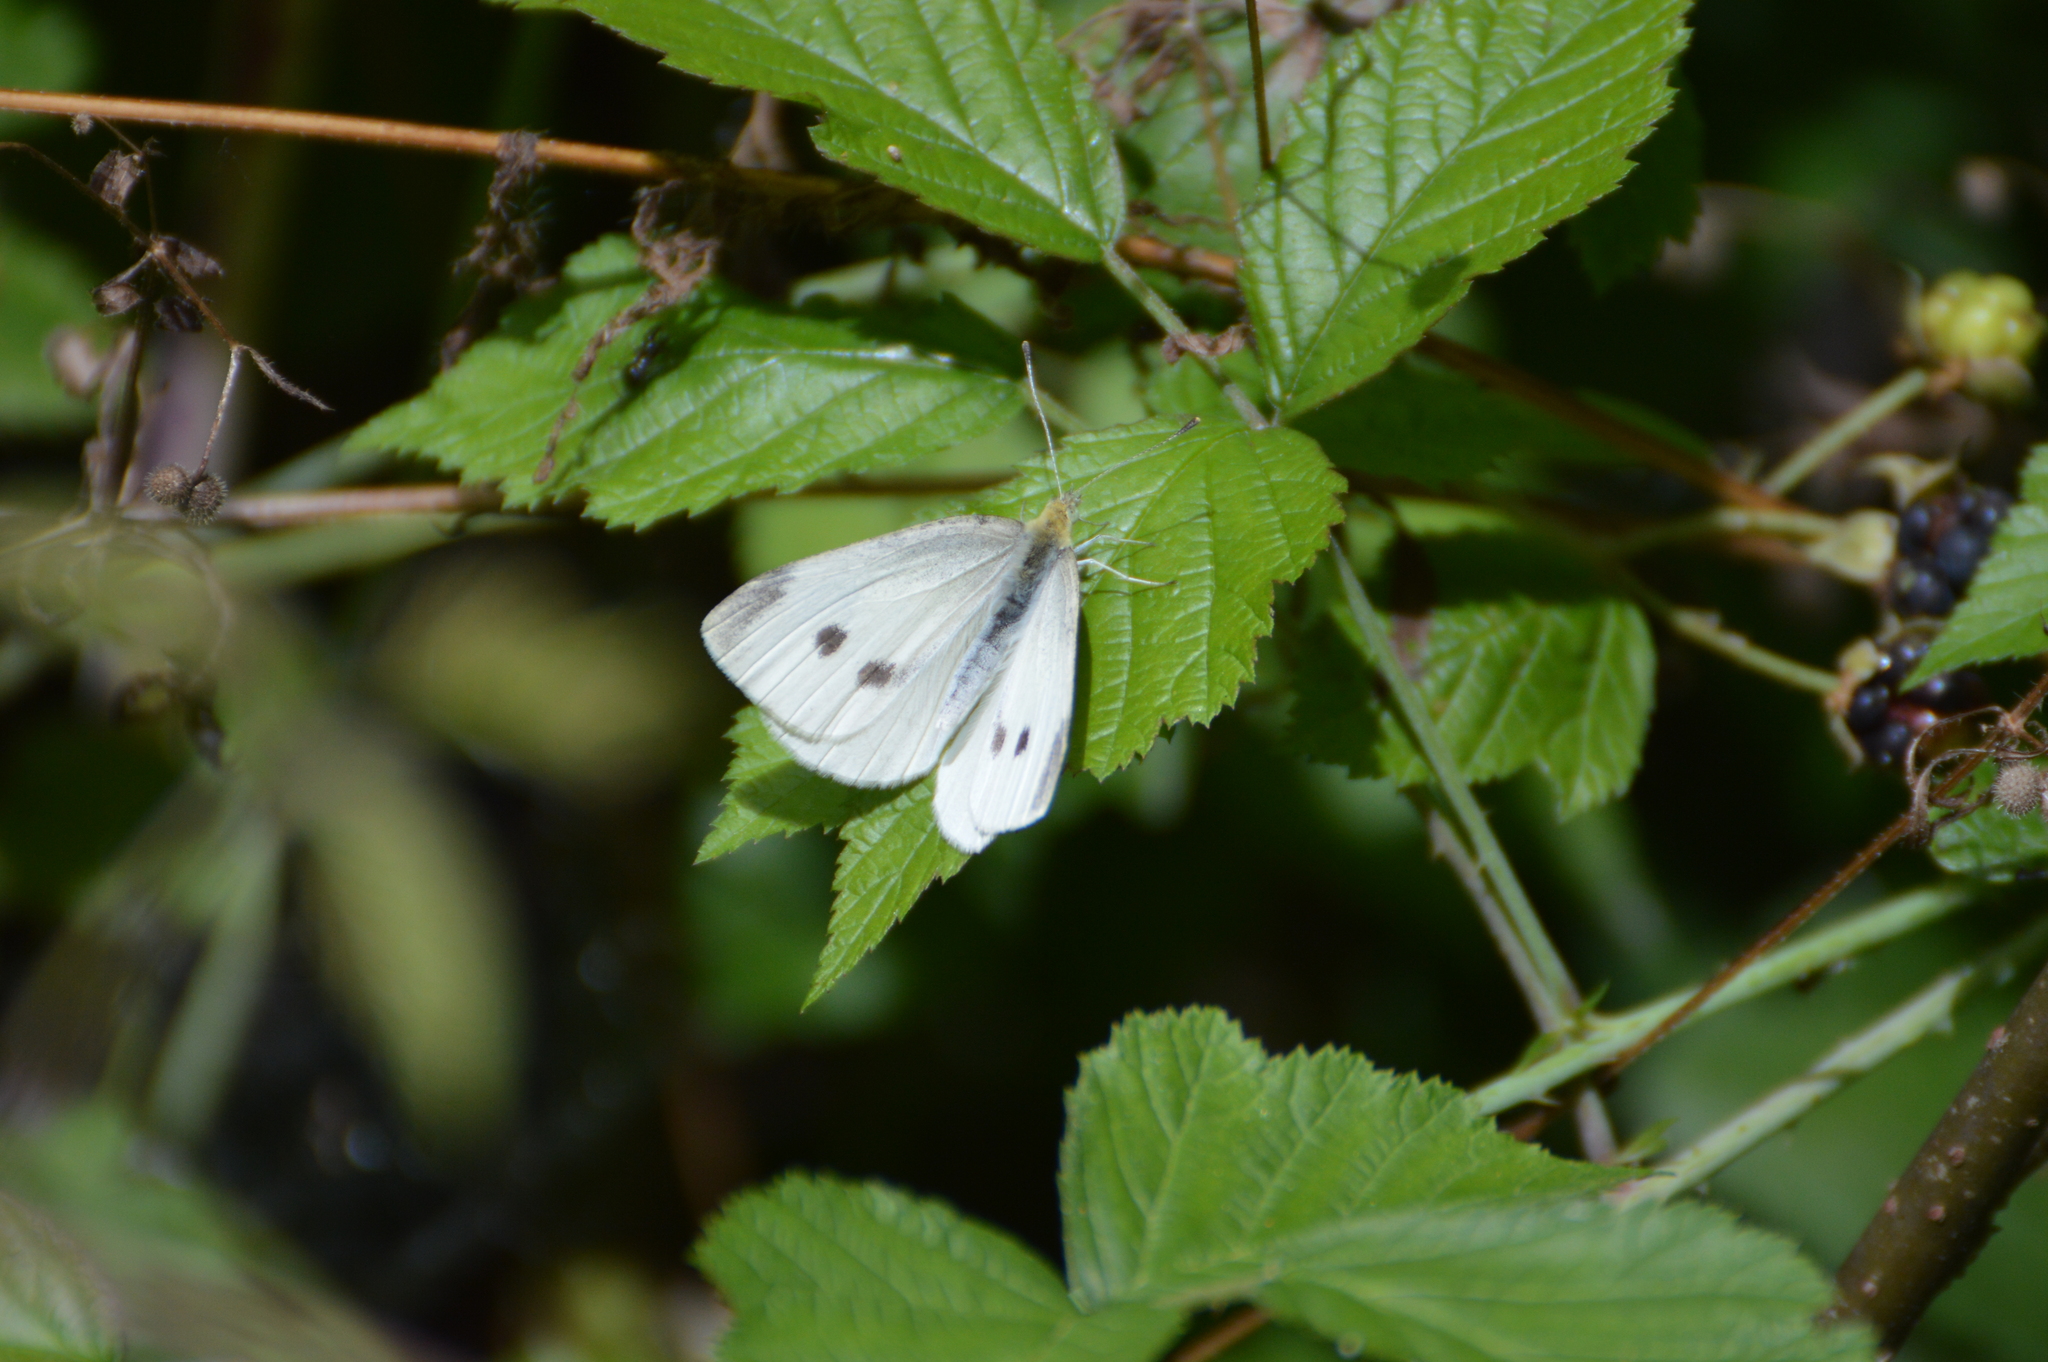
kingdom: Animalia
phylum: Arthropoda
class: Insecta
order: Lepidoptera
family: Pieridae
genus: Pieris
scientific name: Pieris rapae
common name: Small white
